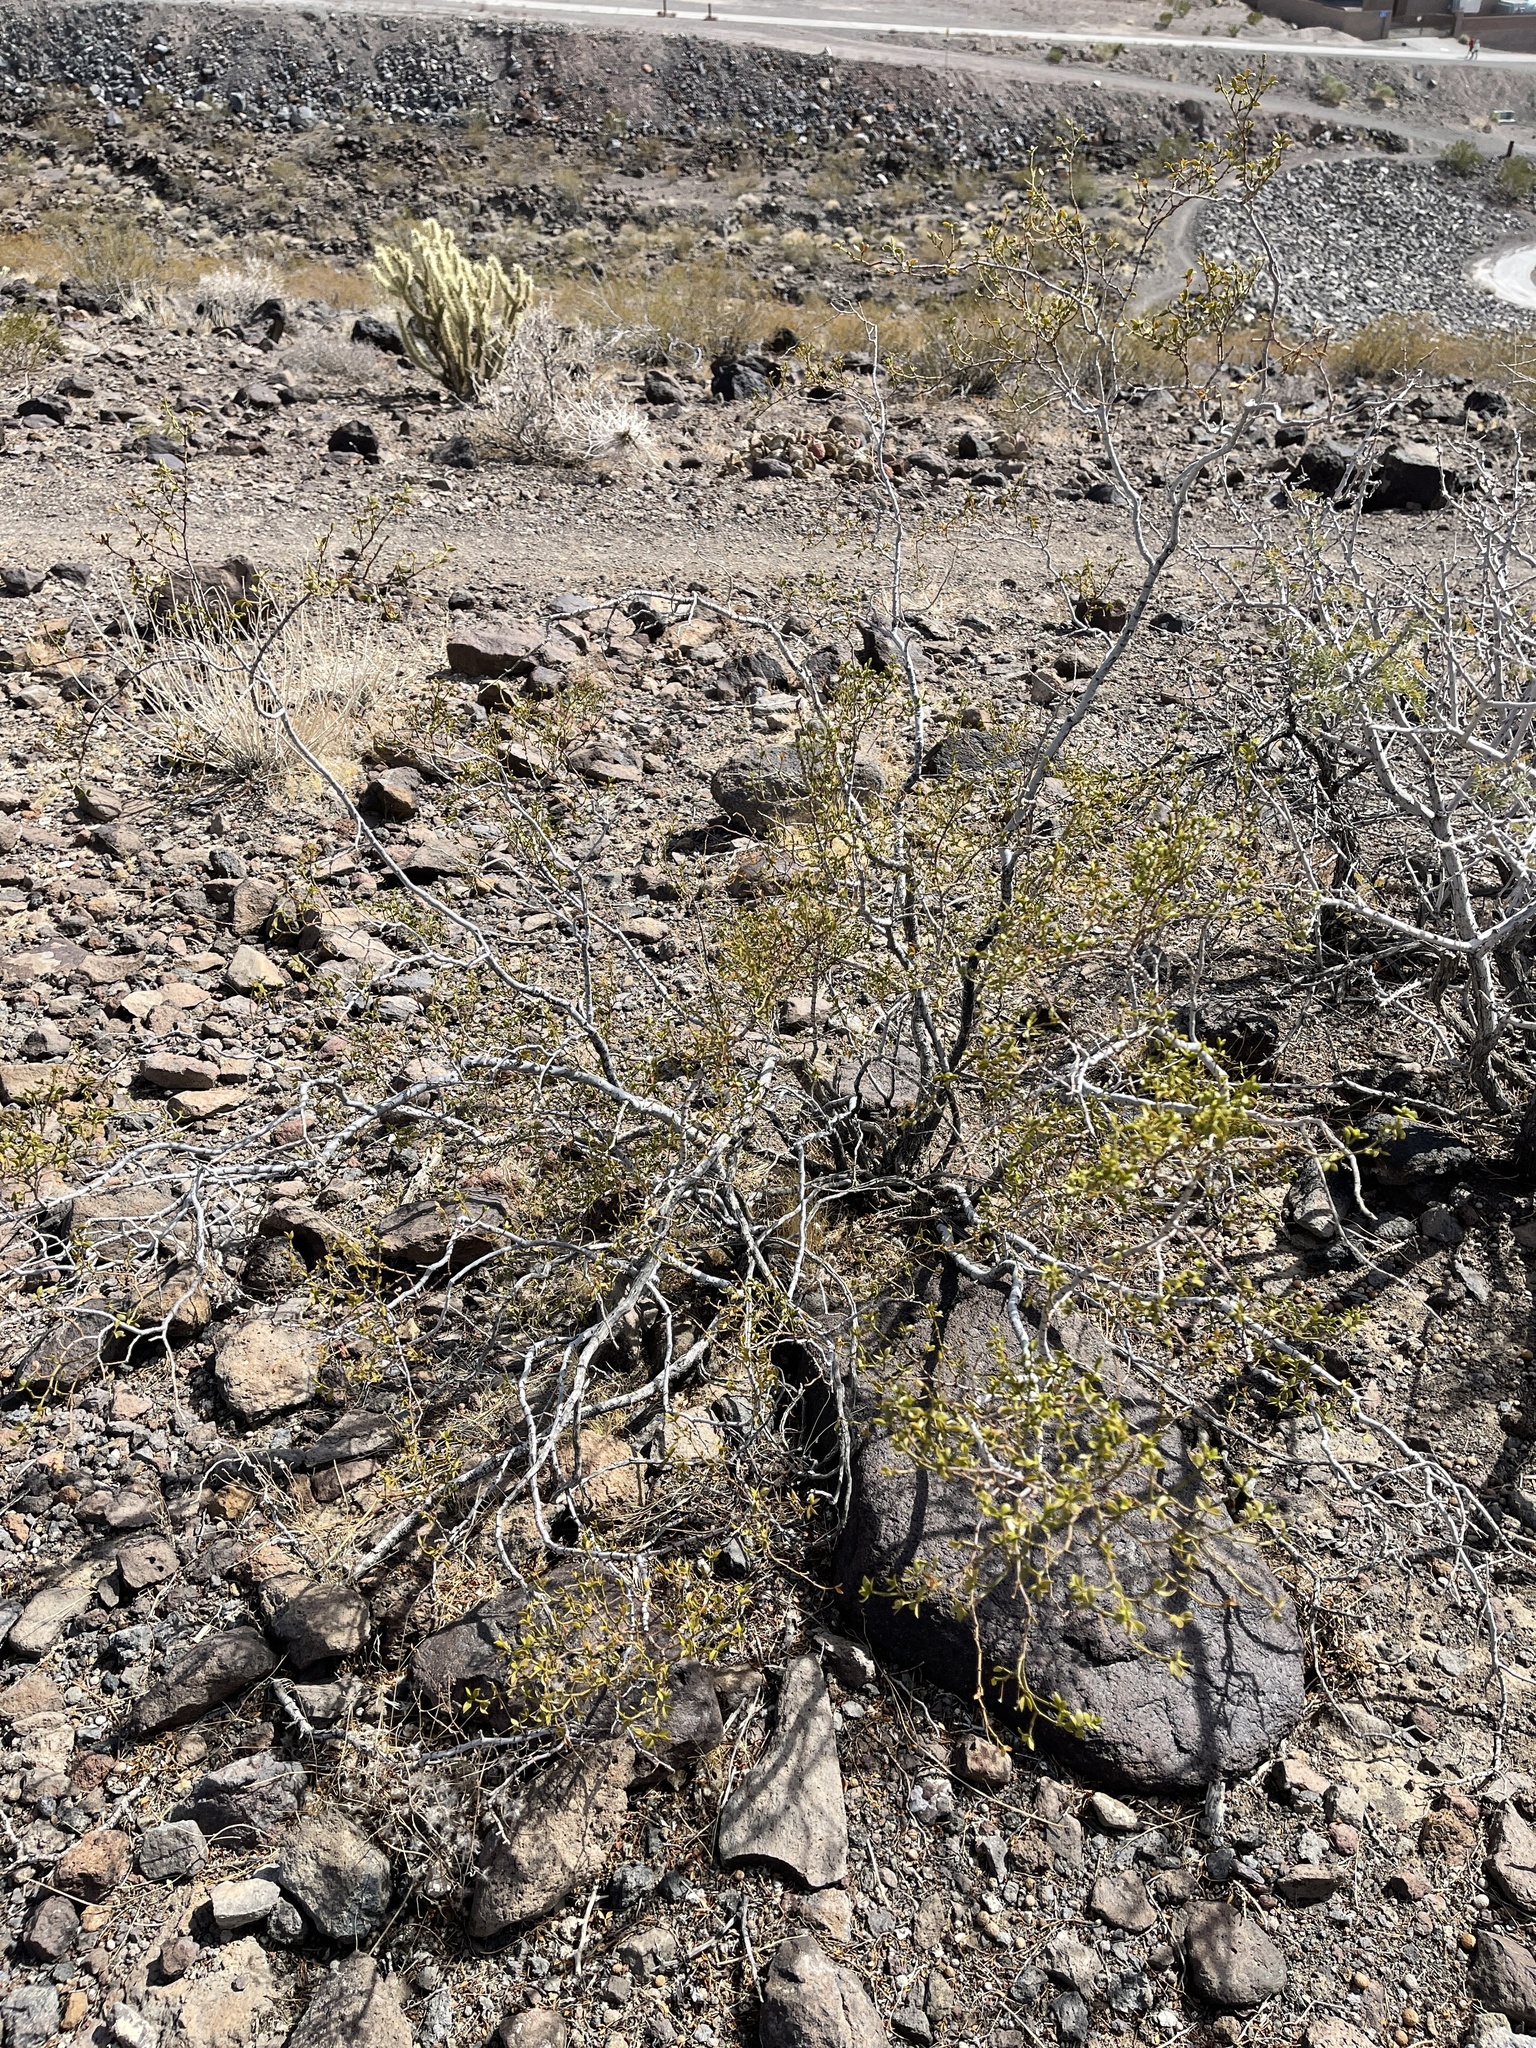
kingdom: Plantae
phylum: Tracheophyta
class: Magnoliopsida
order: Zygophyllales
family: Zygophyllaceae
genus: Larrea
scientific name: Larrea tridentata
